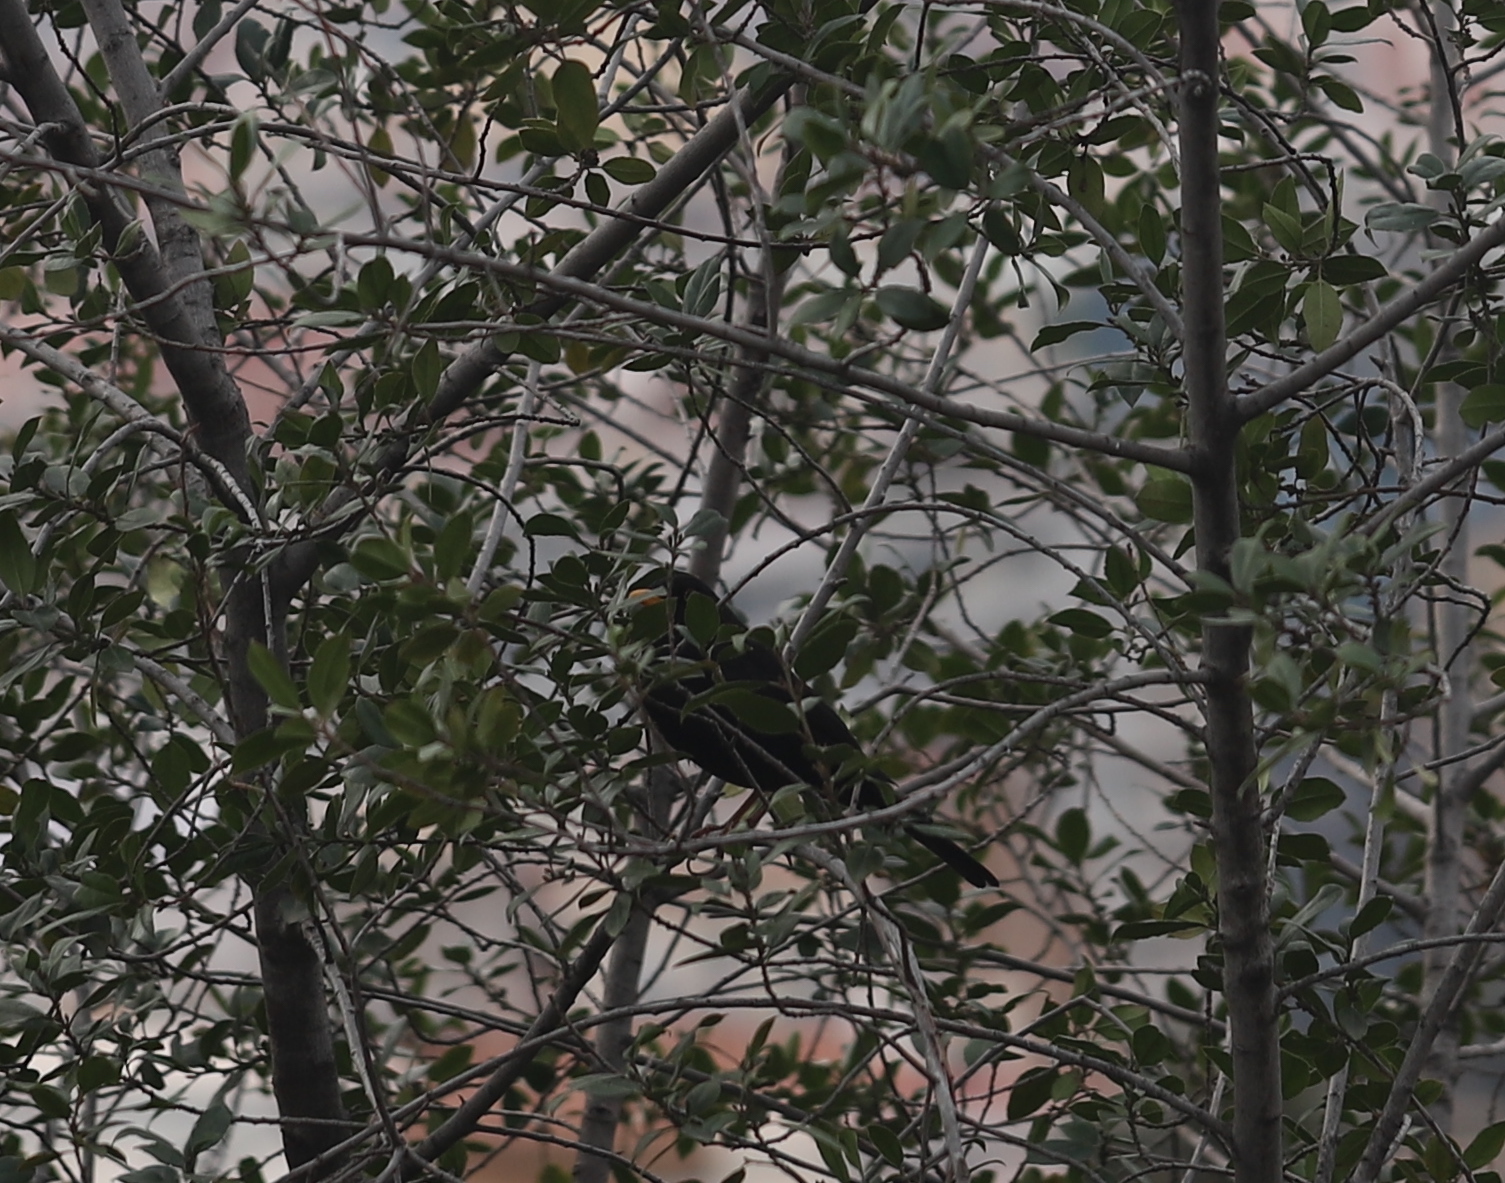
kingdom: Animalia
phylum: Chordata
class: Aves
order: Passeriformes
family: Turdidae
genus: Turdus
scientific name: Turdus merula
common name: Common blackbird
